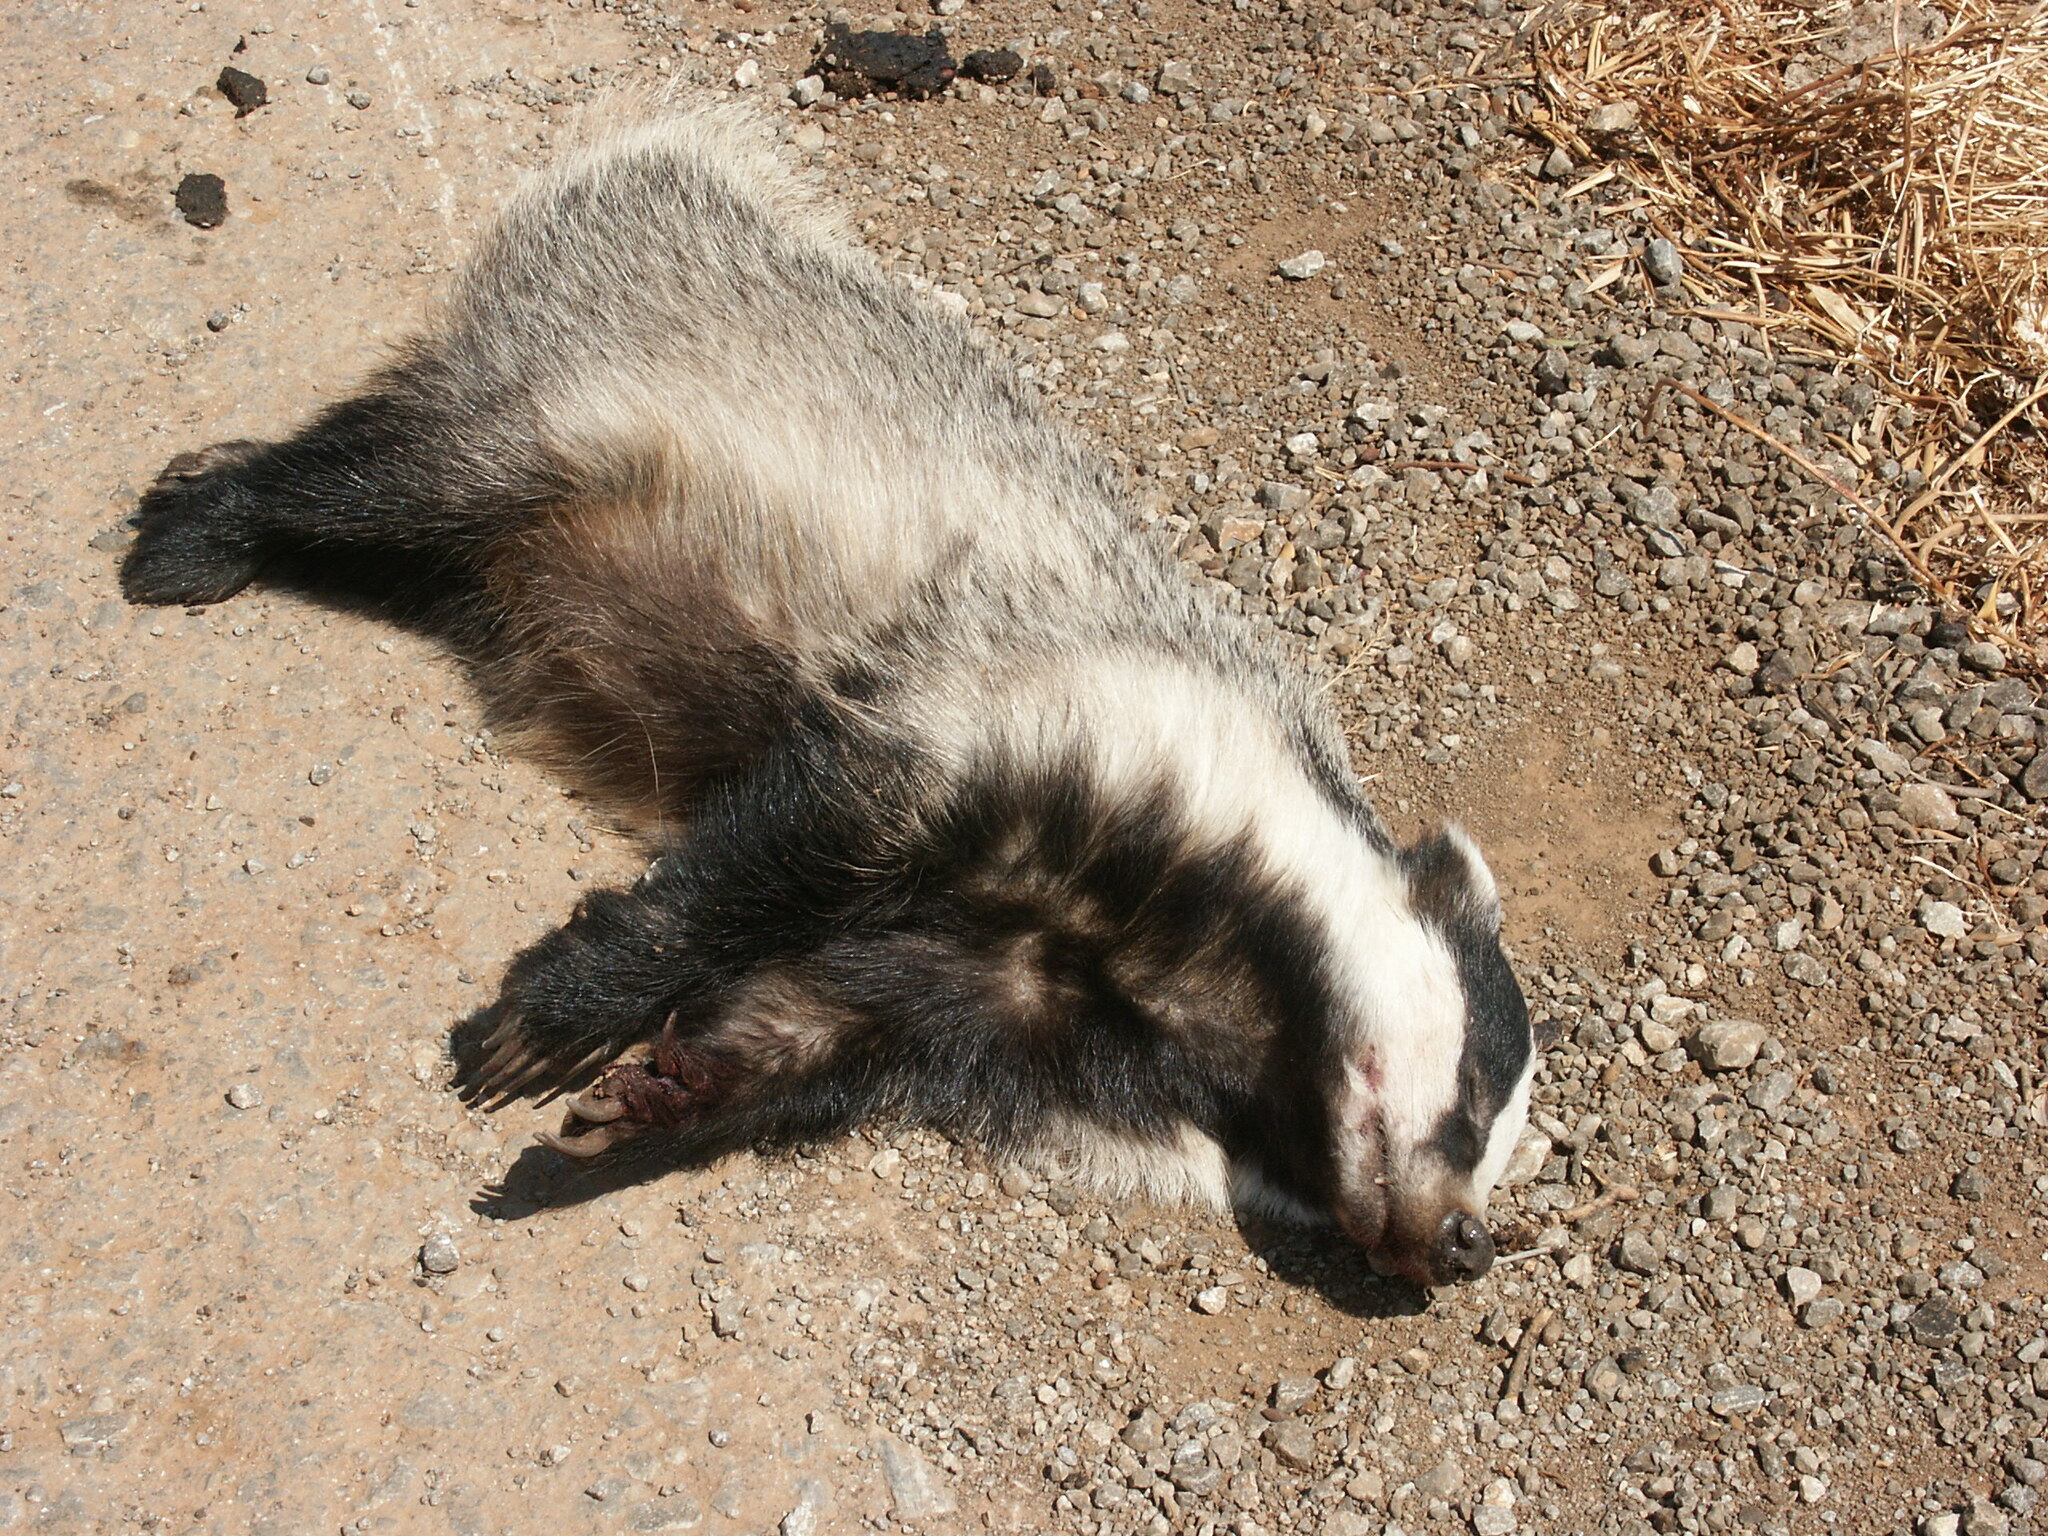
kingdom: Animalia
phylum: Chordata
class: Mammalia
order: Carnivora
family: Mustelidae
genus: Meles
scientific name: Meles canescens
